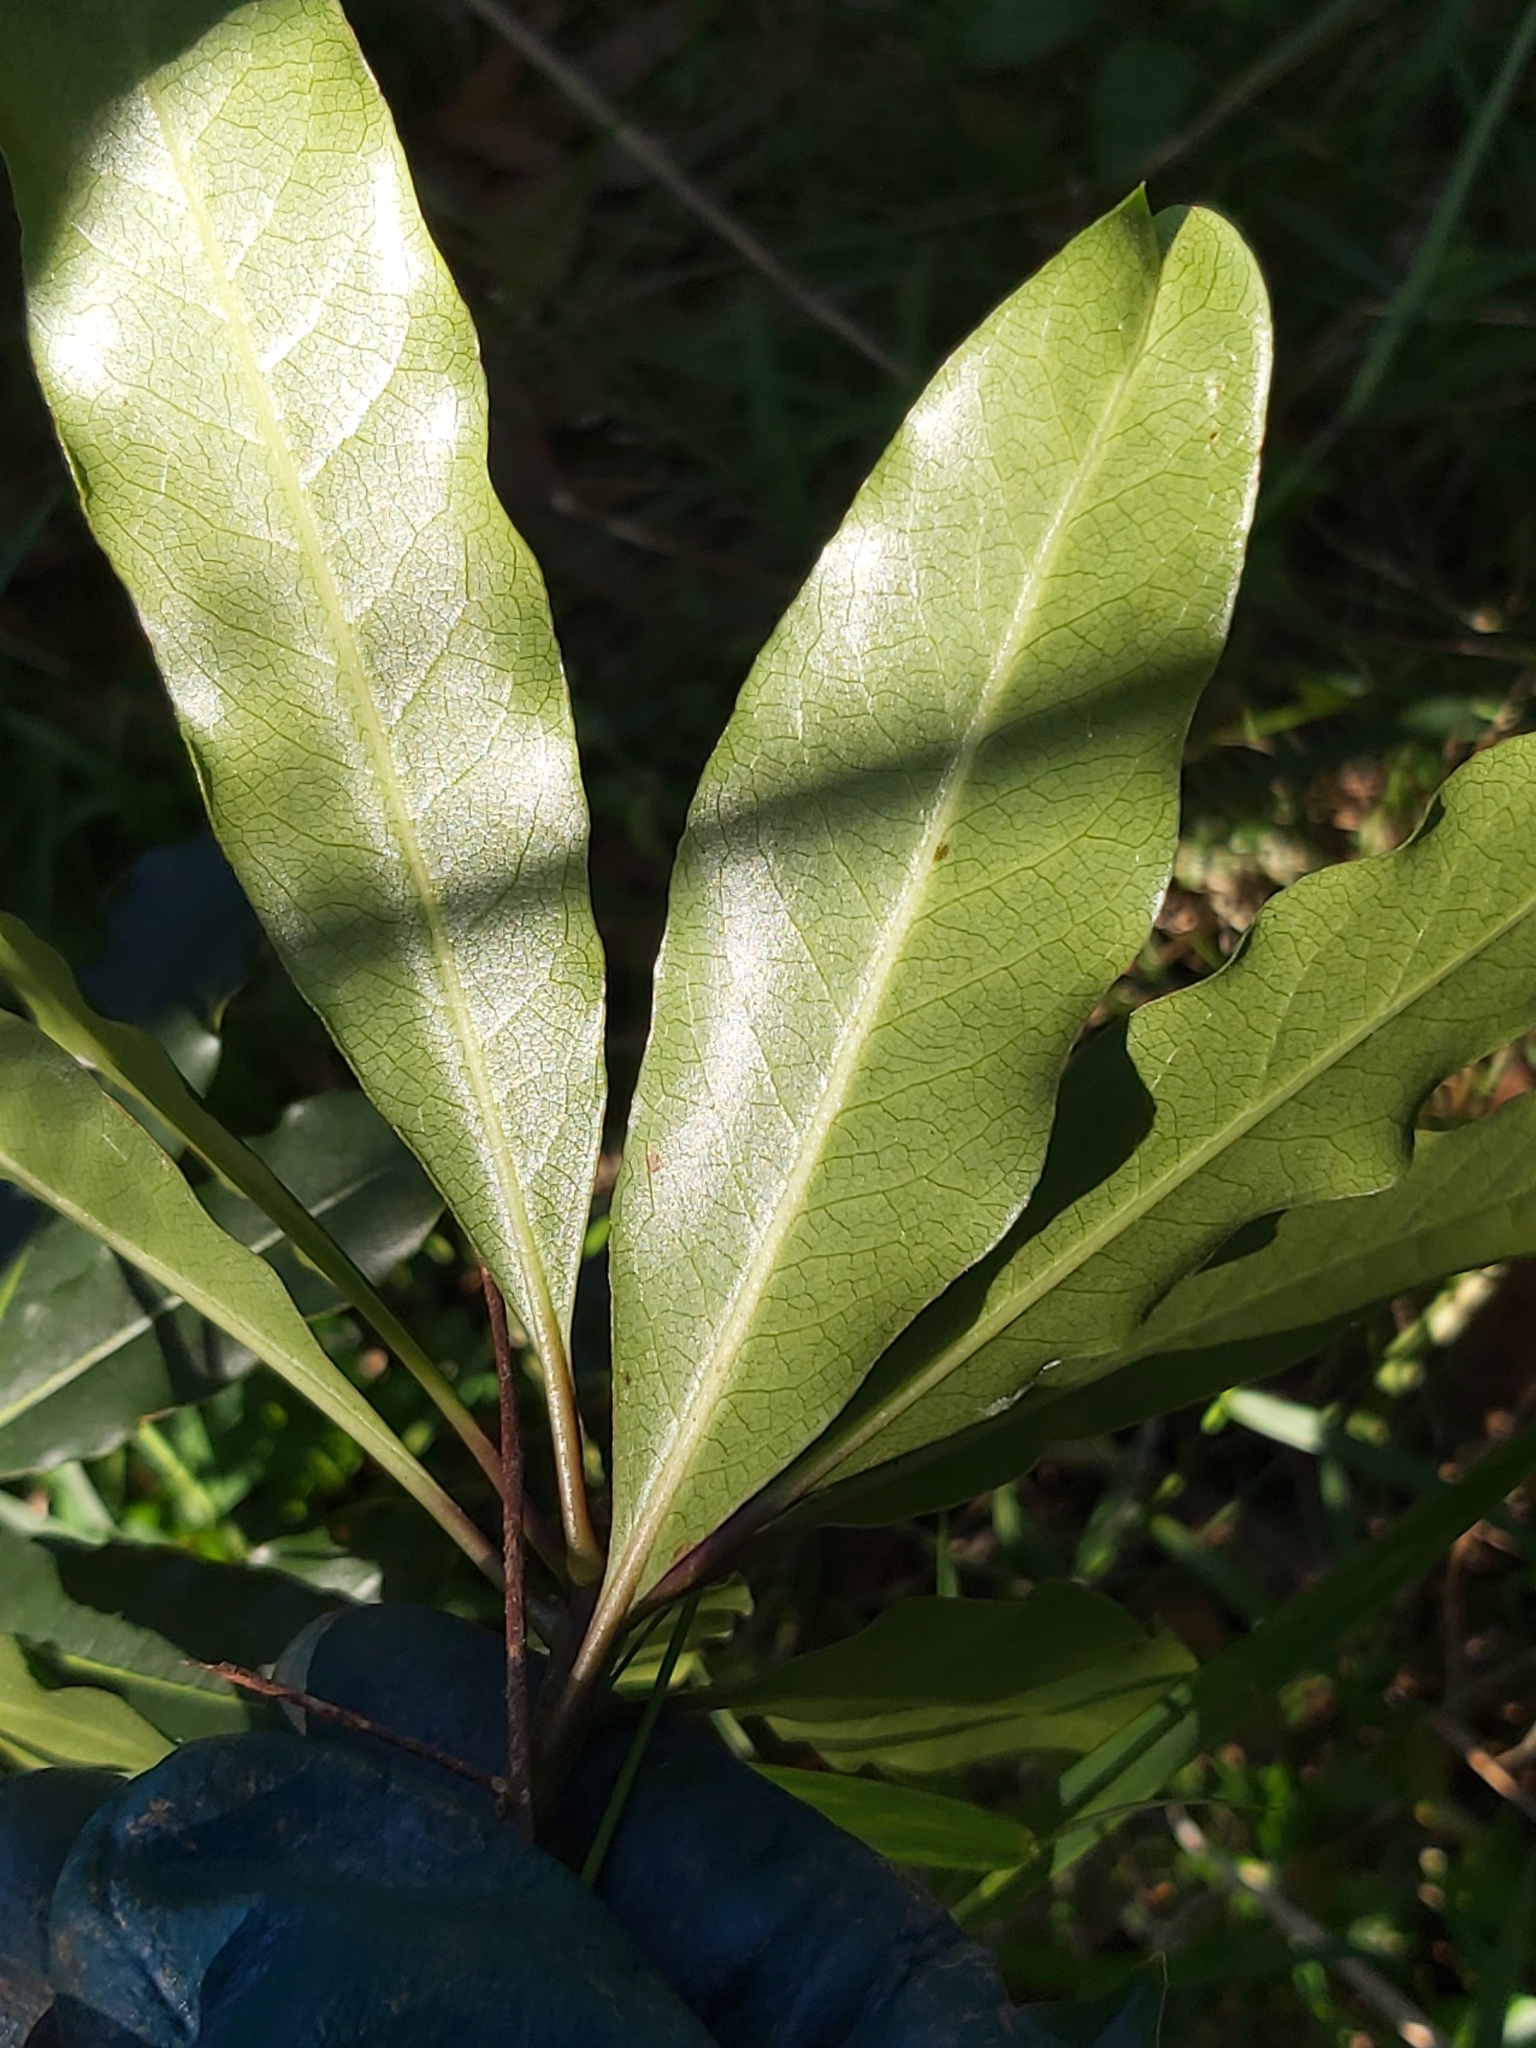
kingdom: Plantae
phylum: Tracheophyta
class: Magnoliopsida
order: Apiales
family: Pittosporaceae
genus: Pittosporum
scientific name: Pittosporum undulatum
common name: Australian cheesewood
